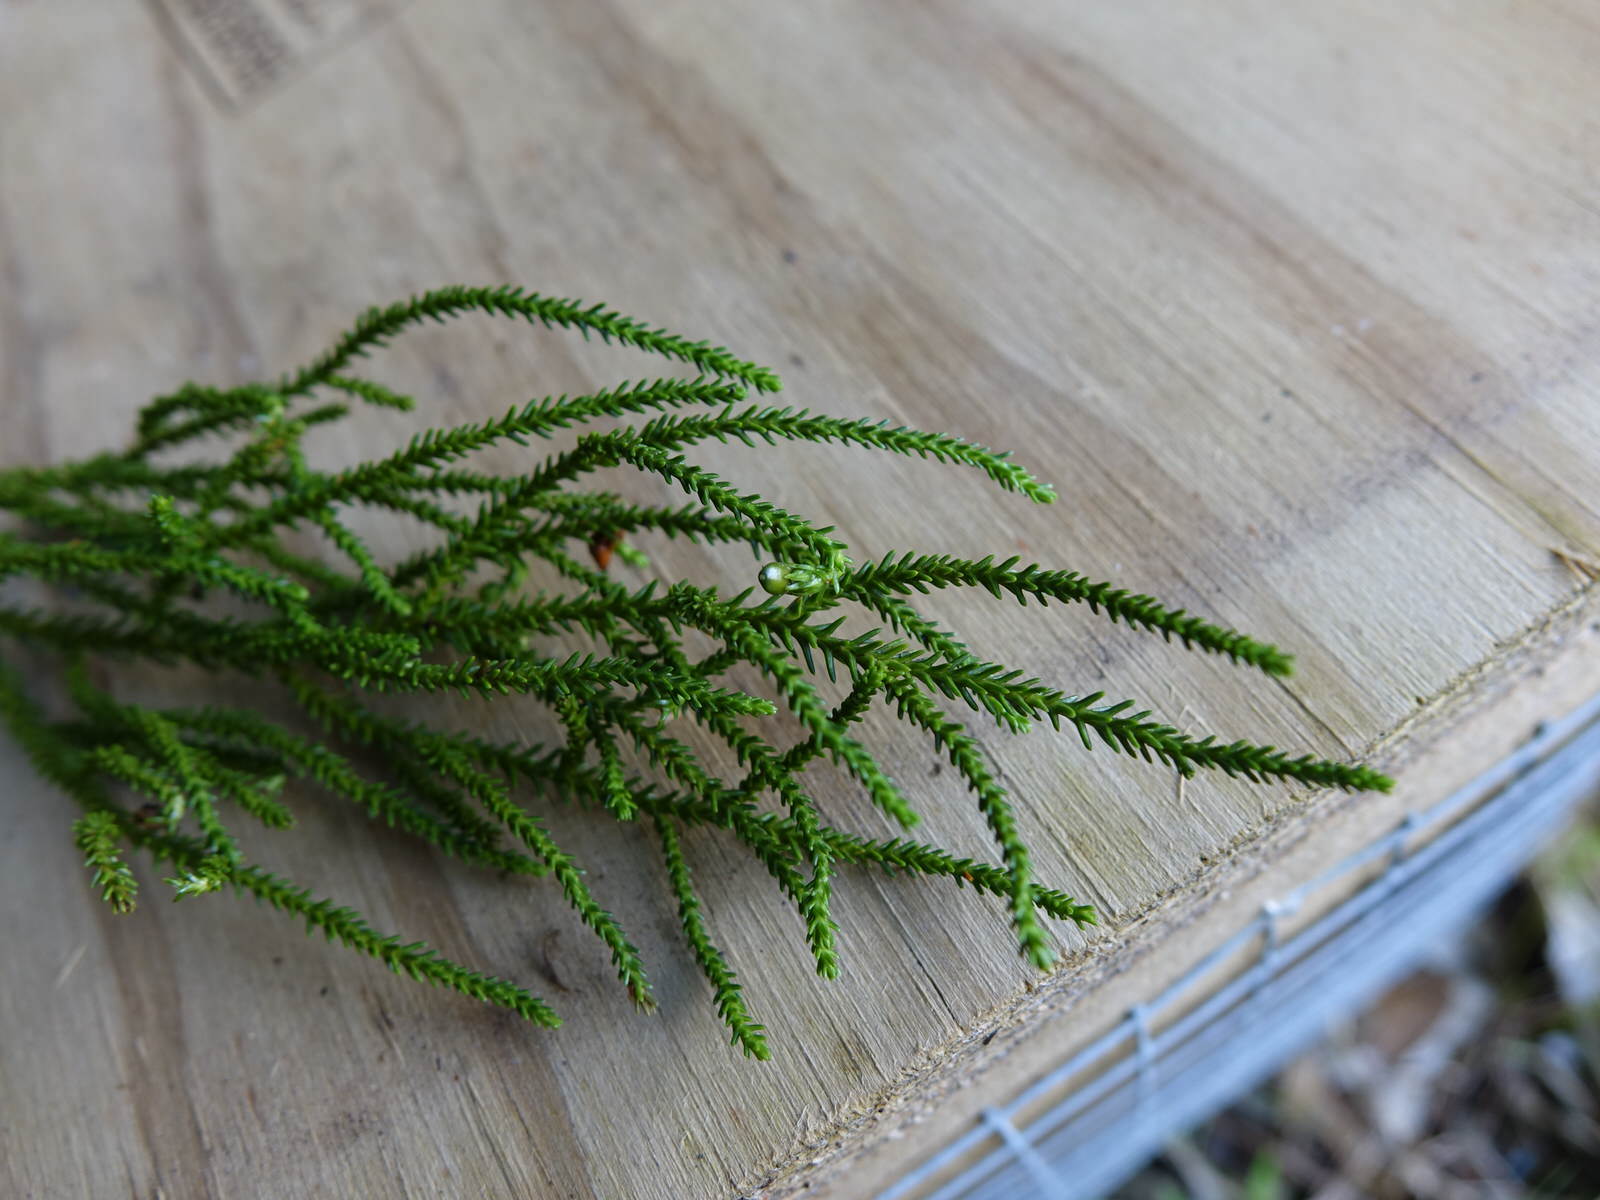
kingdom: Plantae
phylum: Tracheophyta
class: Pinopsida
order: Pinales
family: Podocarpaceae
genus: Dacrydium
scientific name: Dacrydium cupressinum
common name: Red pine
